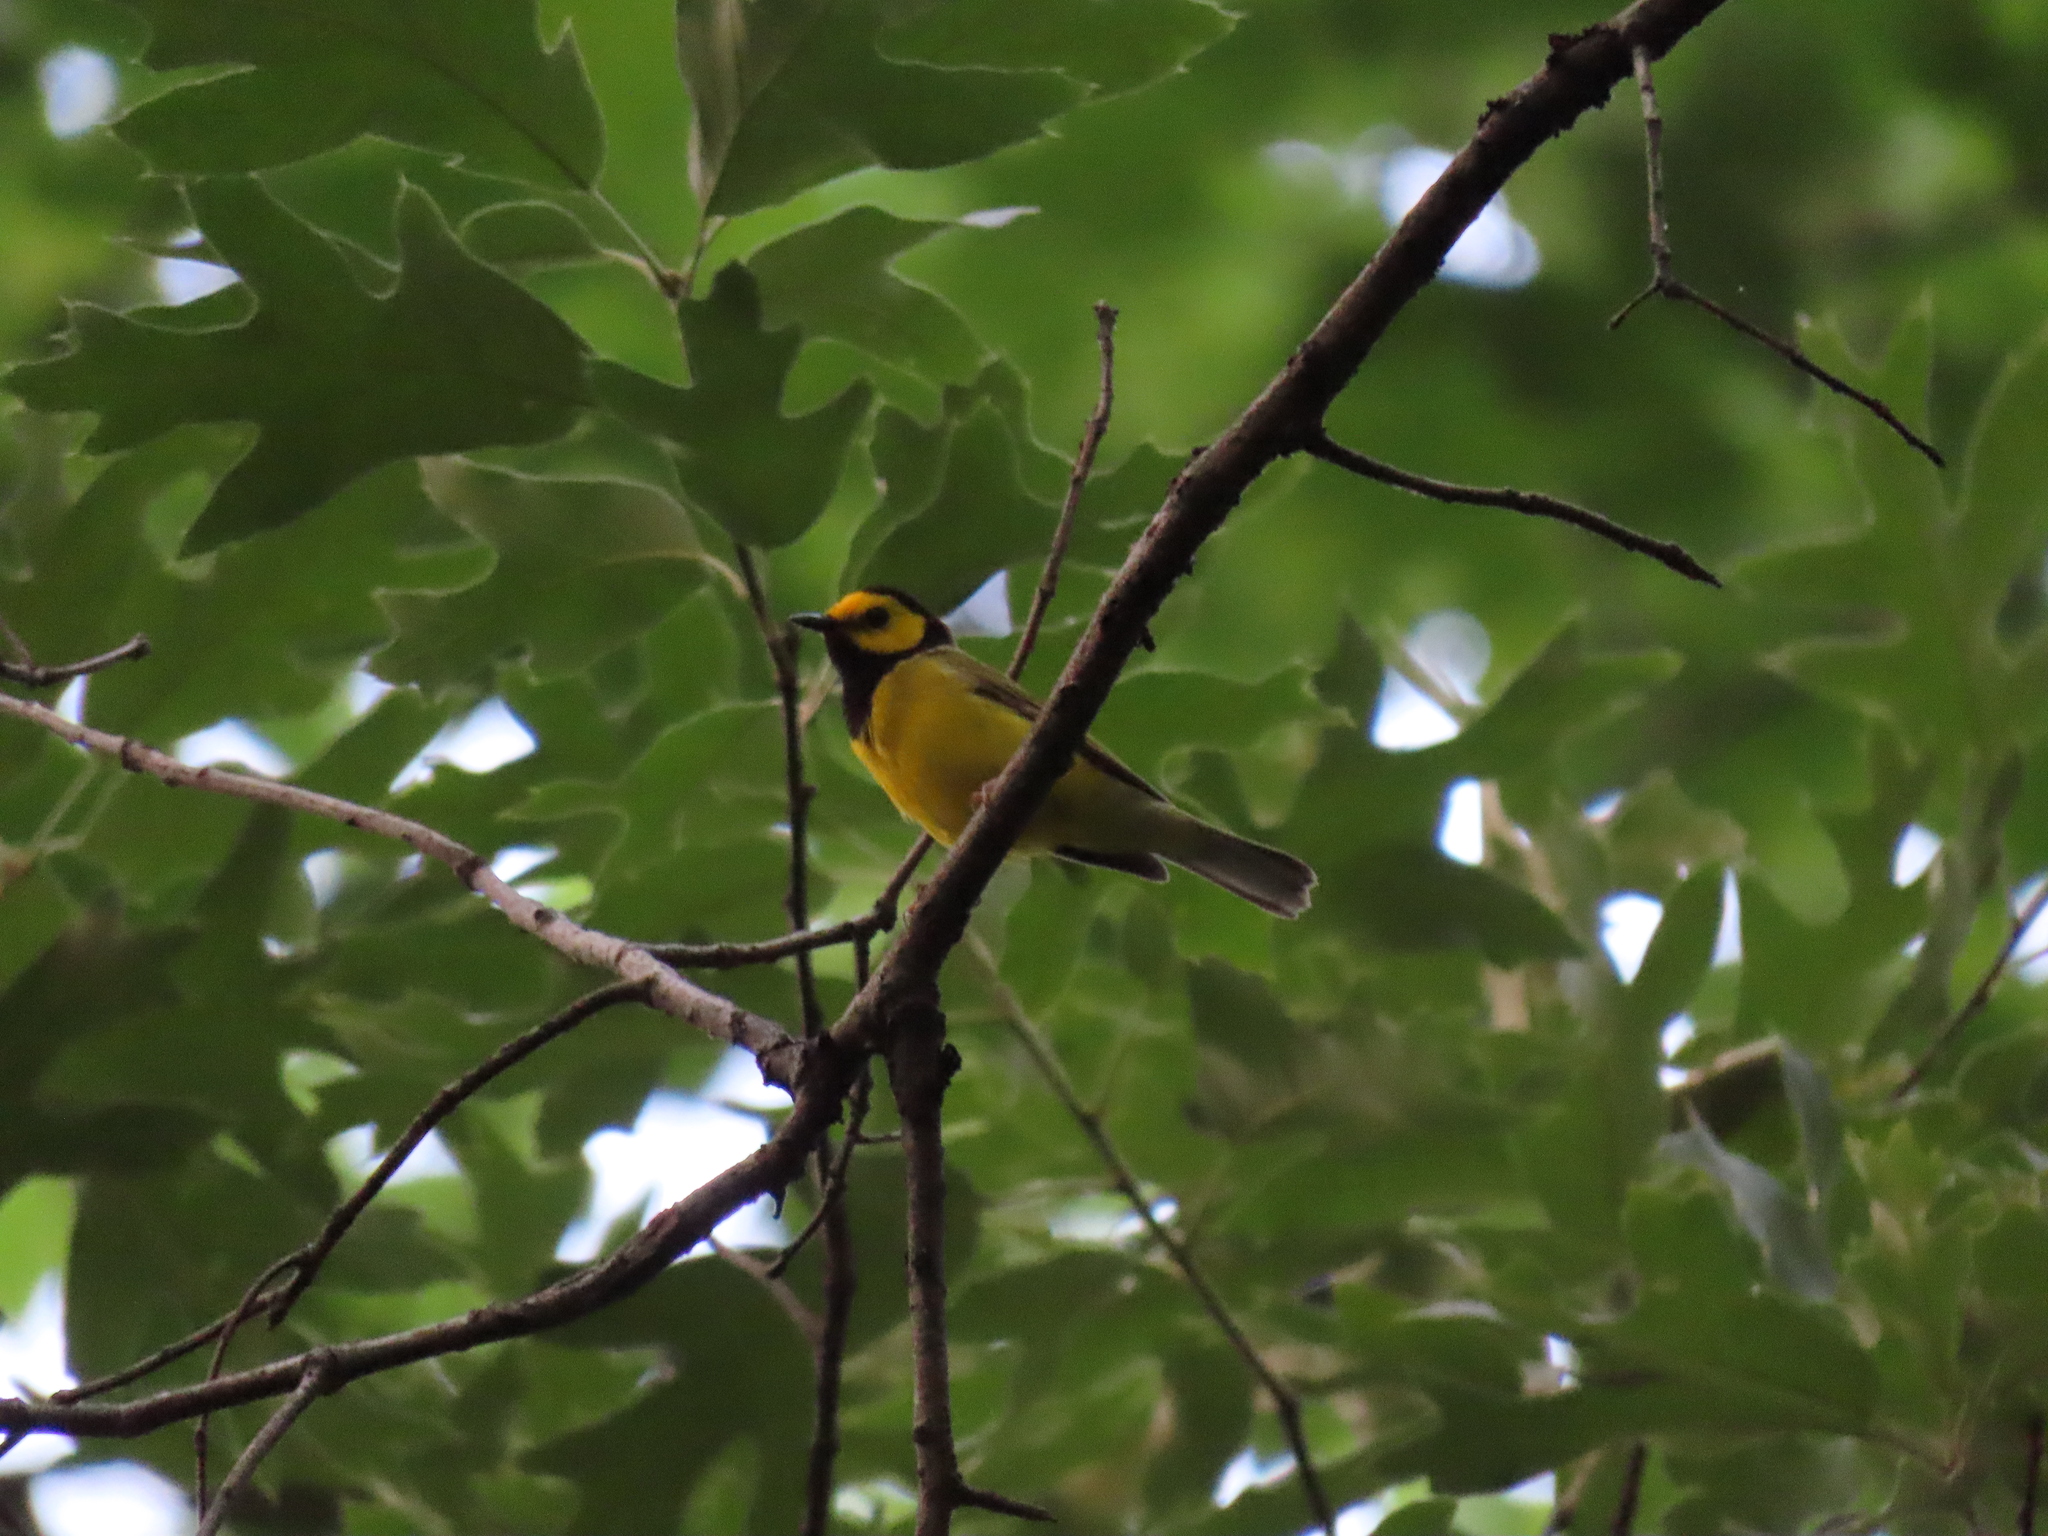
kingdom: Animalia
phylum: Chordata
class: Aves
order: Passeriformes
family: Parulidae
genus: Setophaga
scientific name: Setophaga citrina
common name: Hooded warbler
